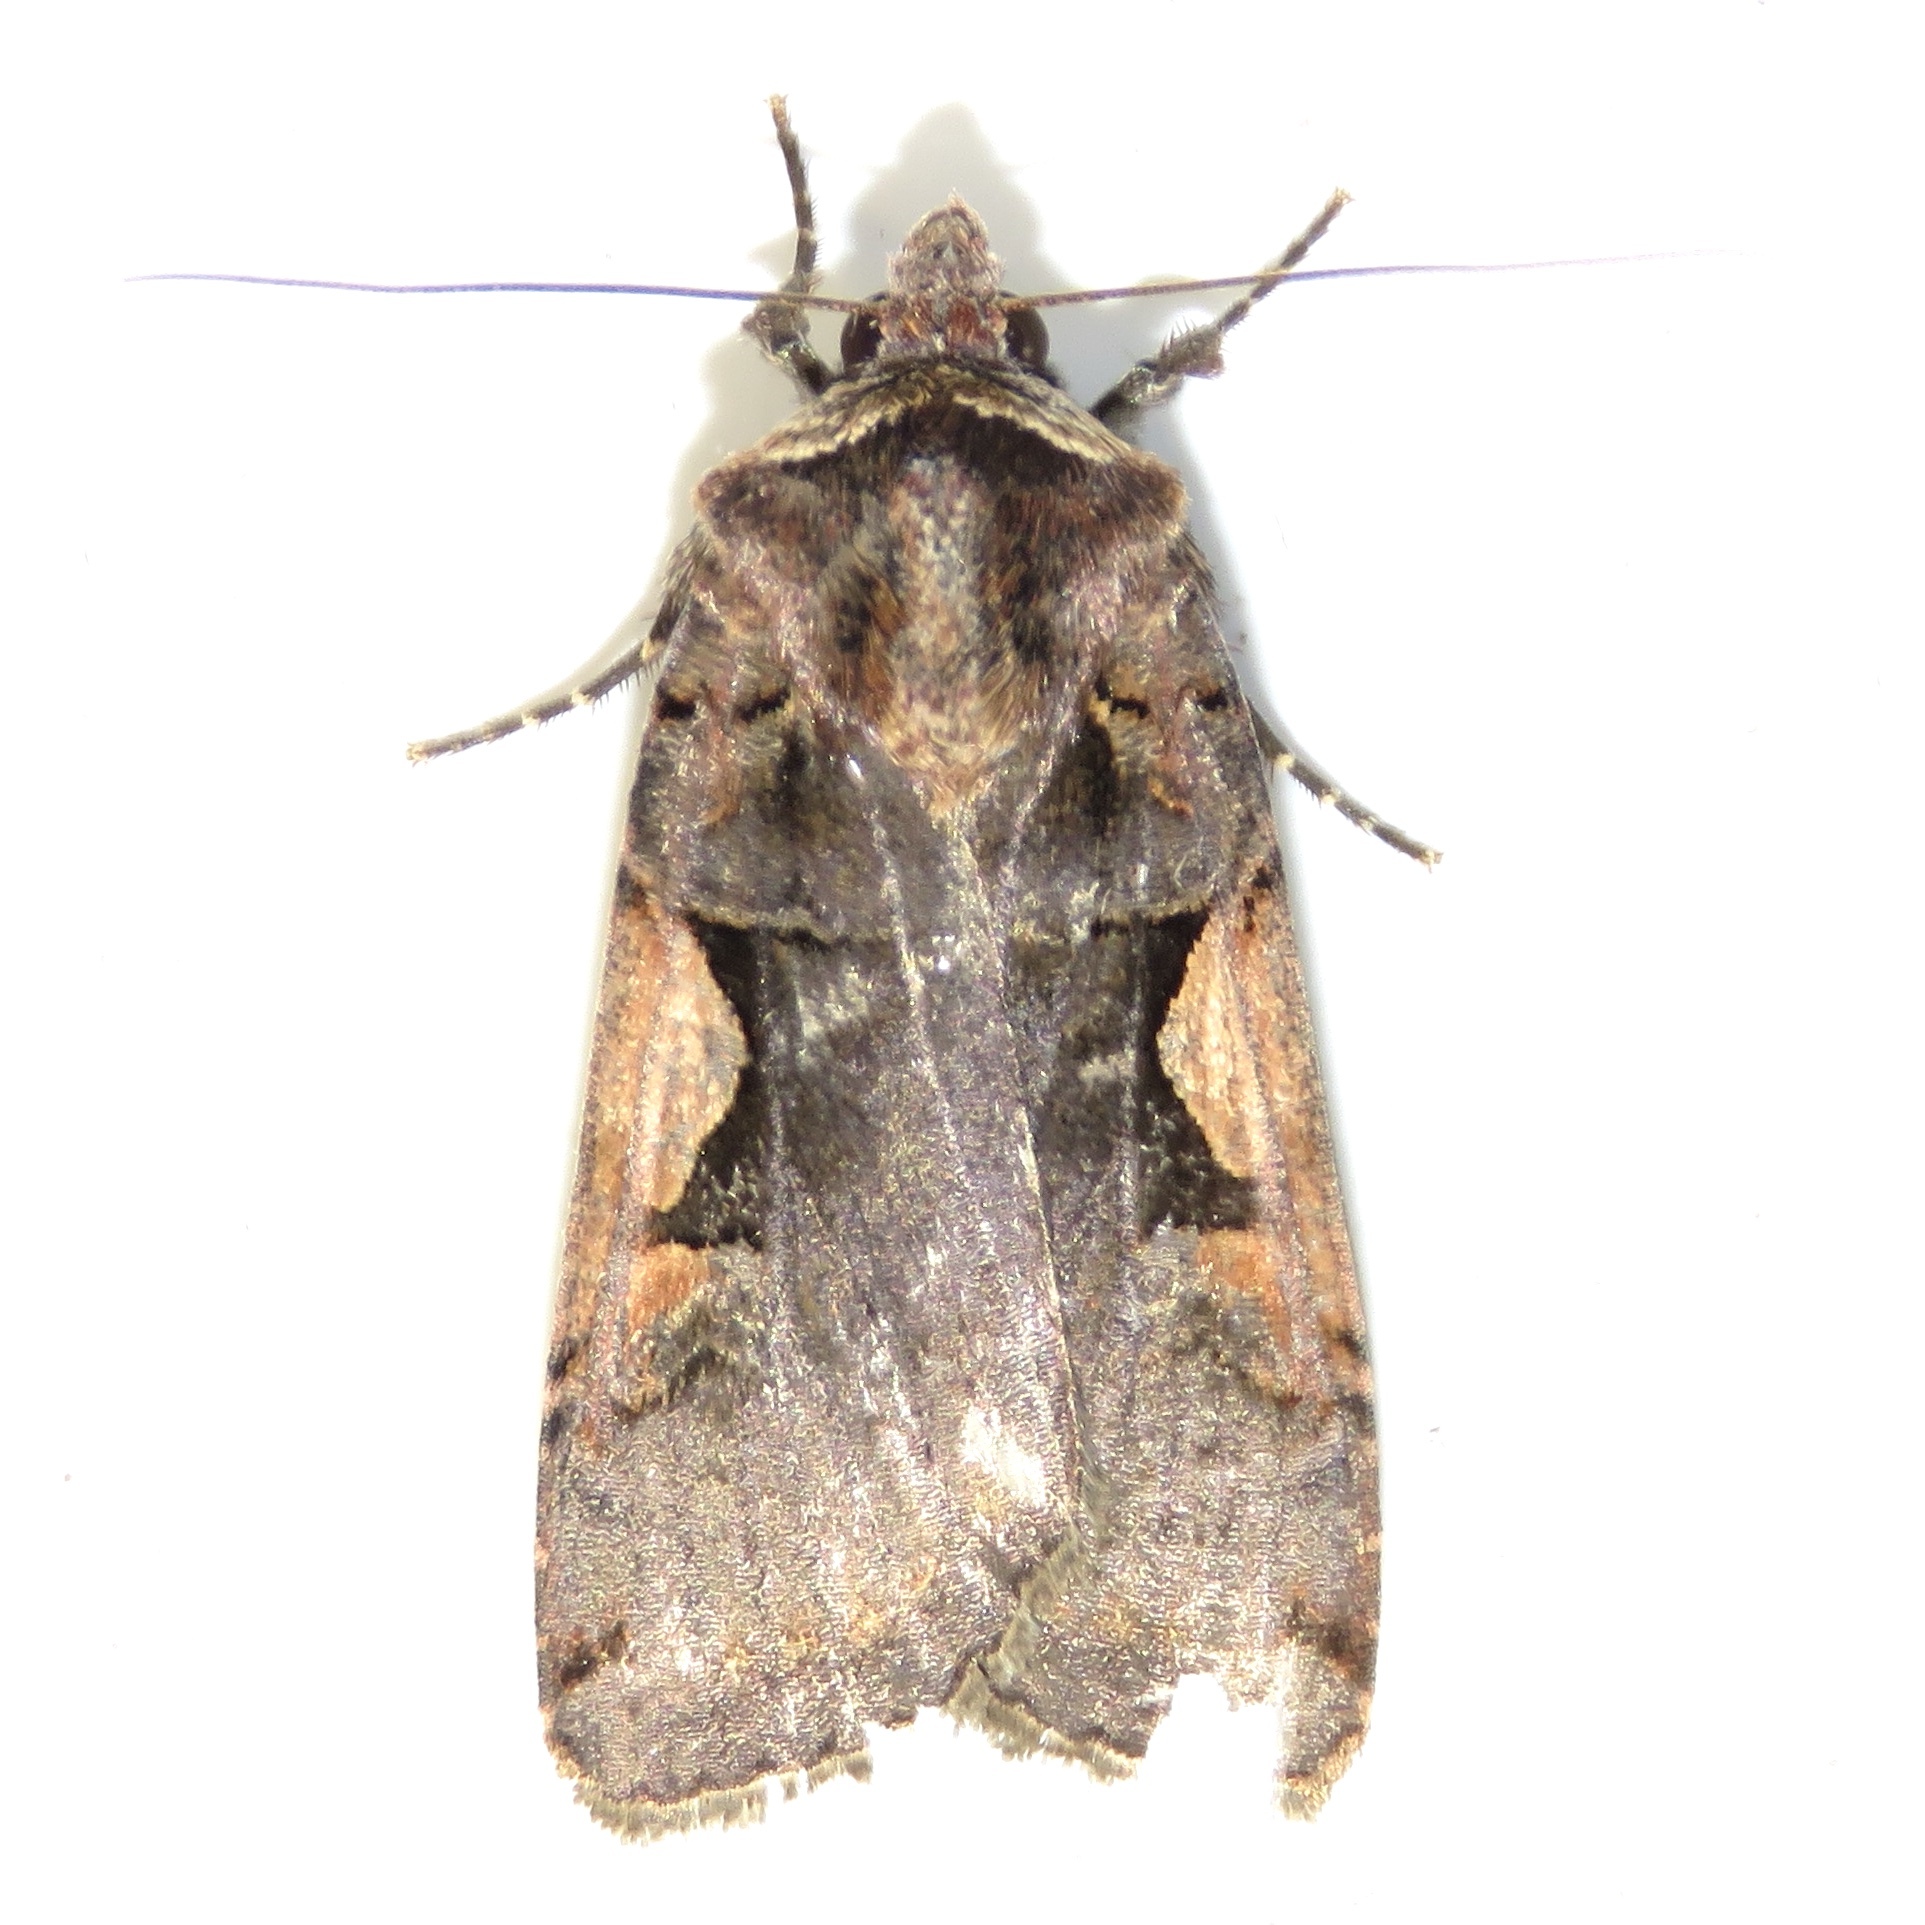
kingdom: Animalia
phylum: Arthropoda
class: Insecta
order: Lepidoptera
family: Noctuidae
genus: Xestia
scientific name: Xestia
